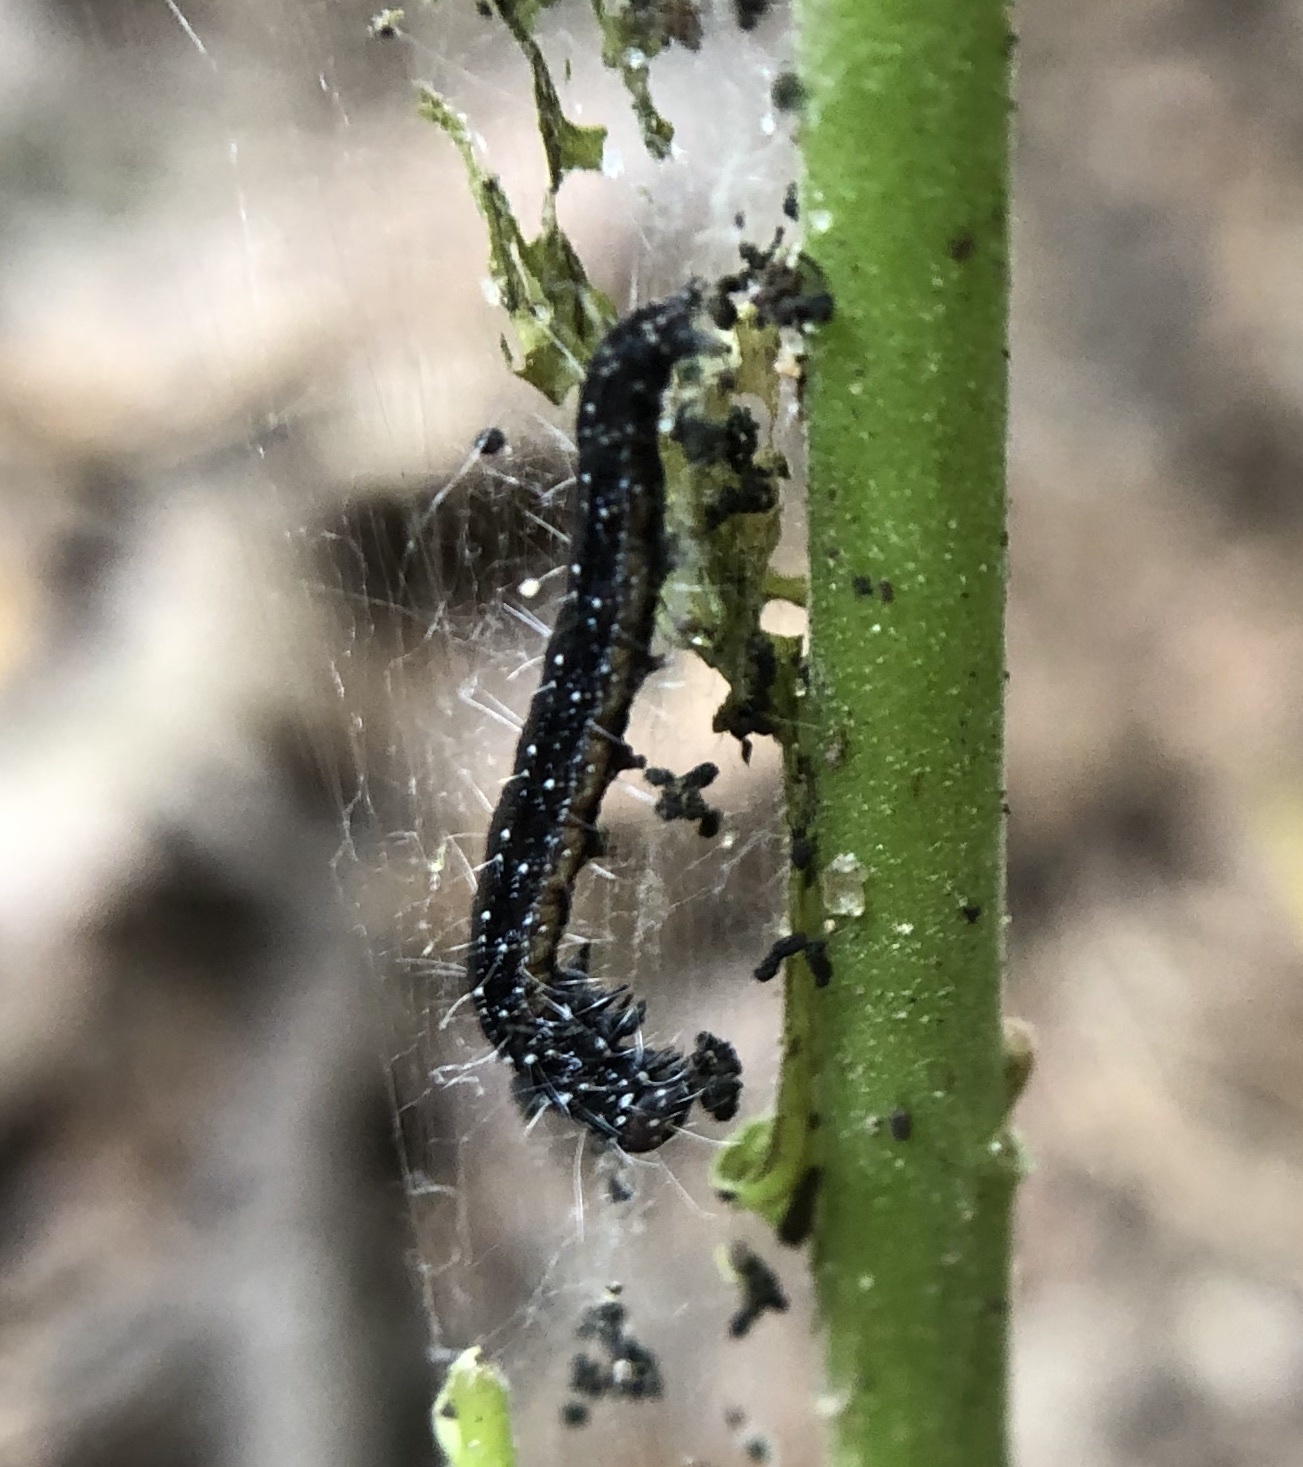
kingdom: Animalia
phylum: Arthropoda
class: Insecta
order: Lepidoptera
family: Attevidae
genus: Atteva
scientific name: Atteva punctella
